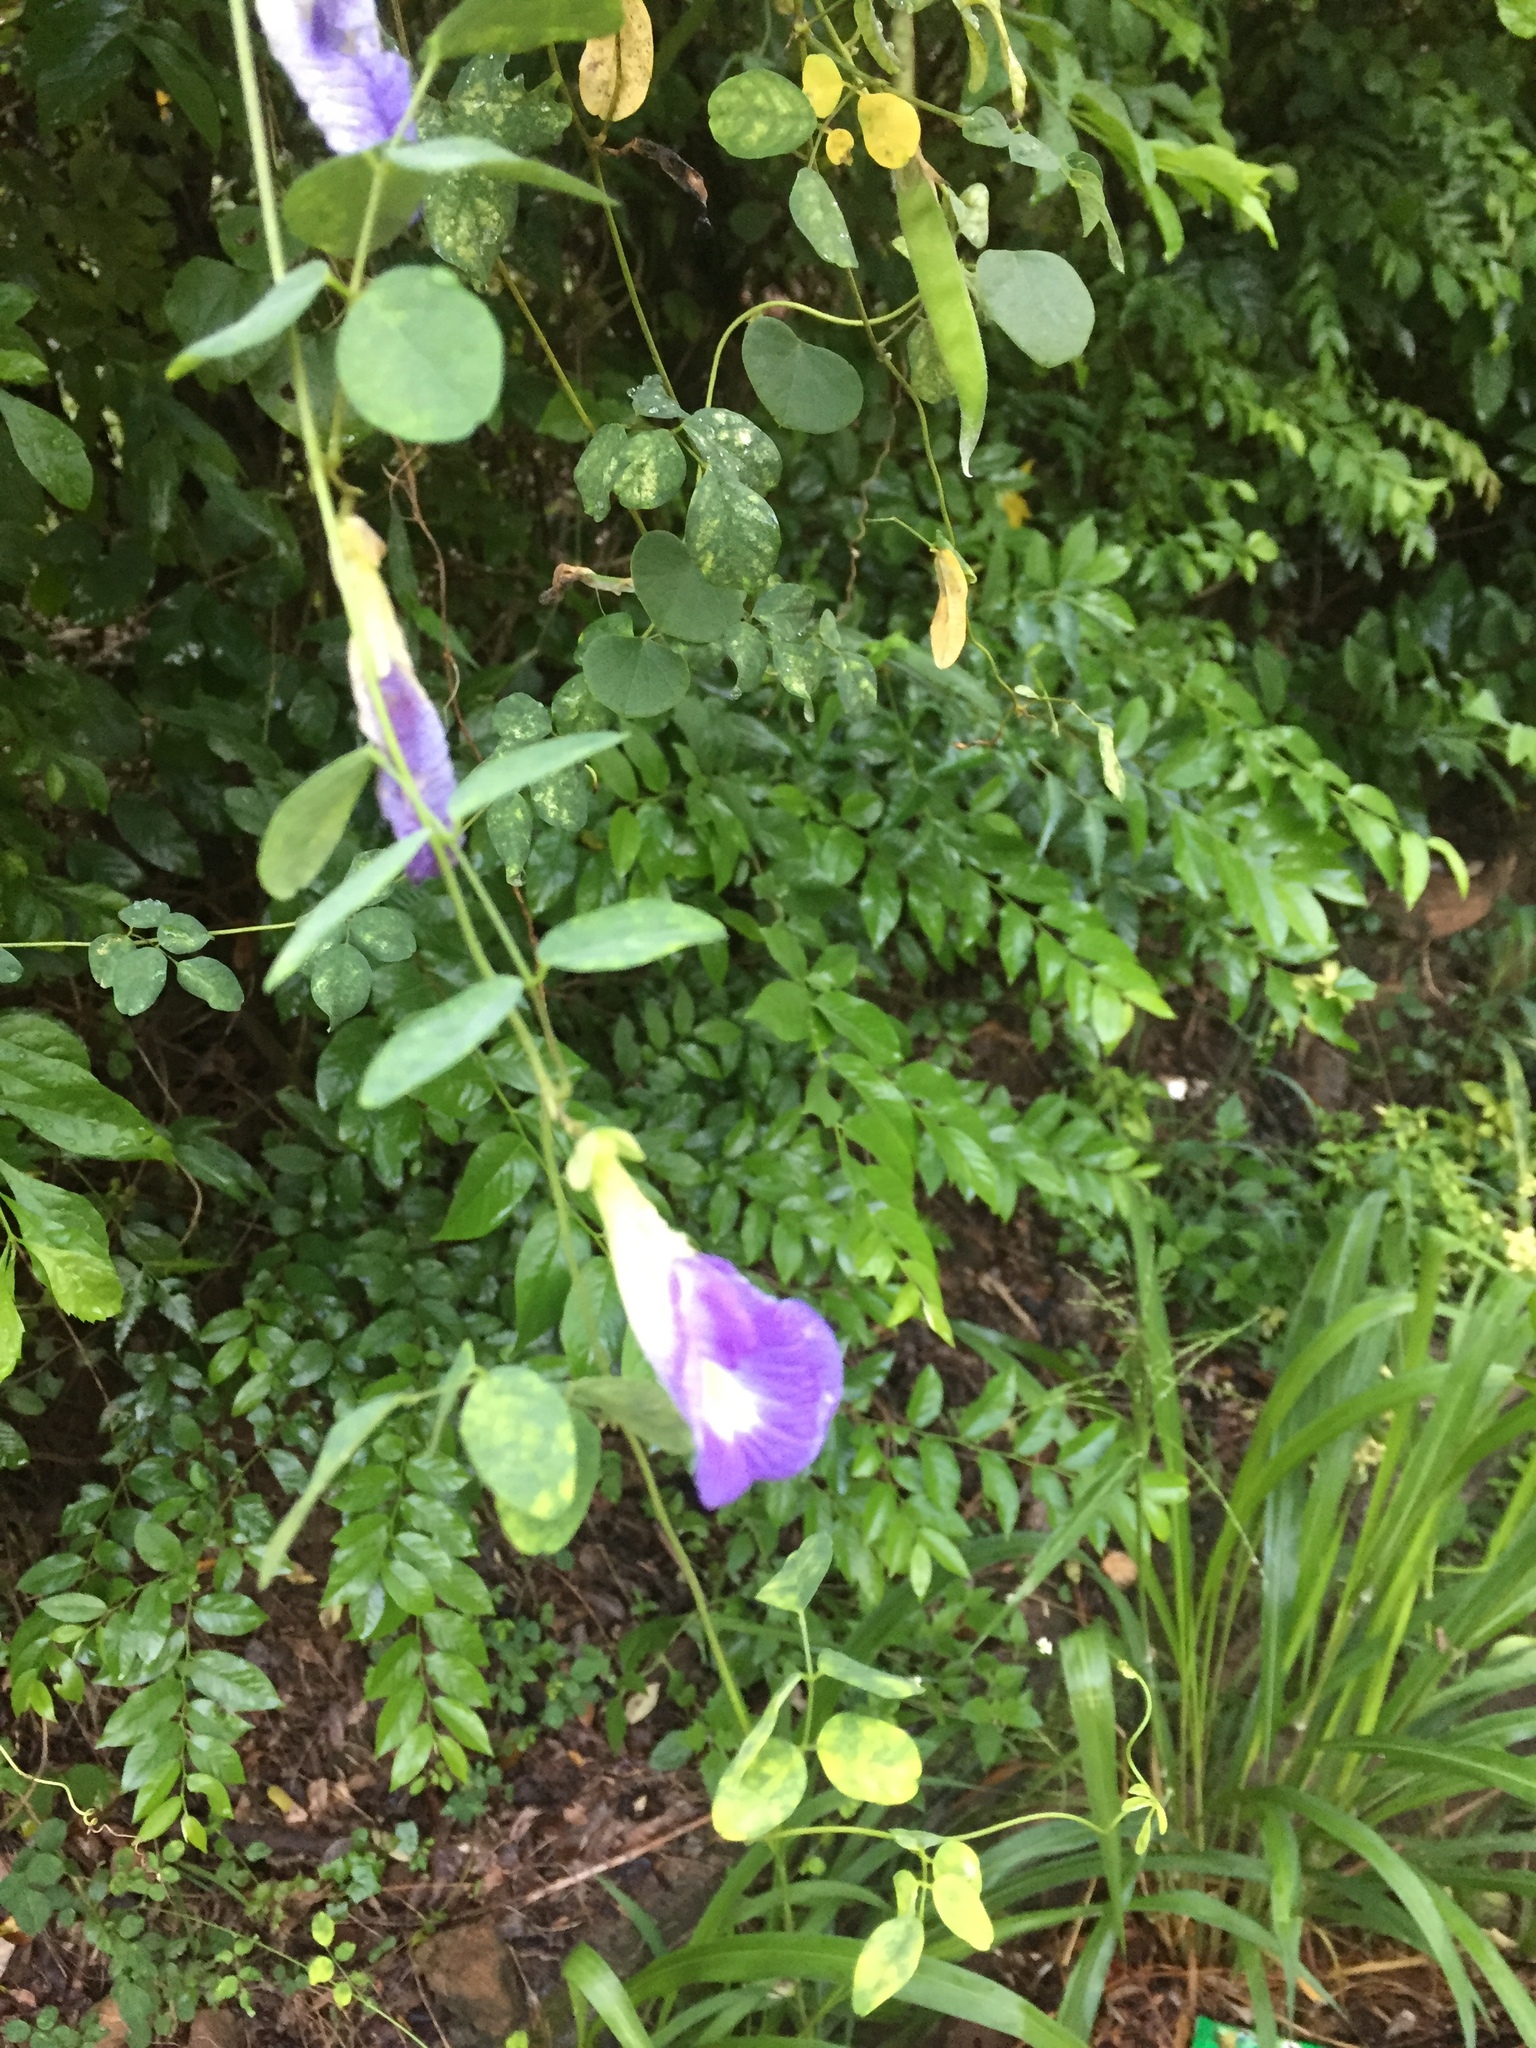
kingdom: Plantae
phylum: Tracheophyta
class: Magnoliopsida
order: Fabales
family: Fabaceae
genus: Clitoria
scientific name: Clitoria ternatea
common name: Asian pigeonwings
